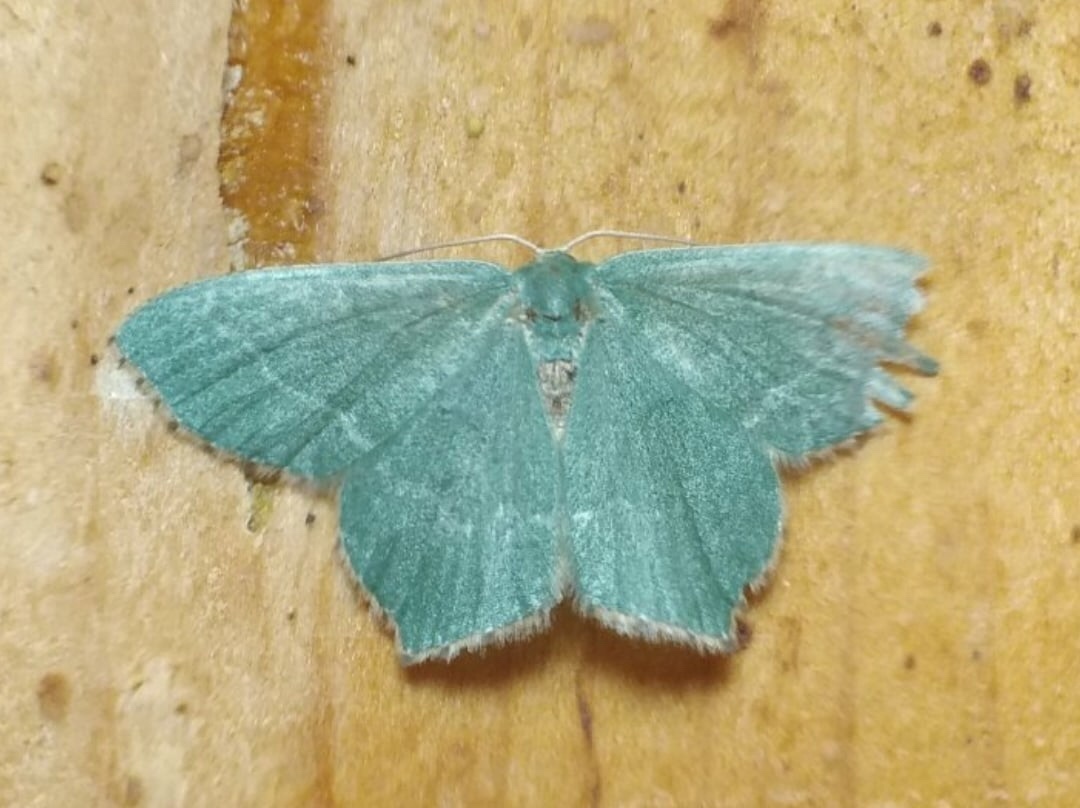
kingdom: Animalia
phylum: Arthropoda
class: Insecta
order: Lepidoptera
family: Geometridae
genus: Hemithea
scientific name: Hemithea aestivaria
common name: Common emerald
